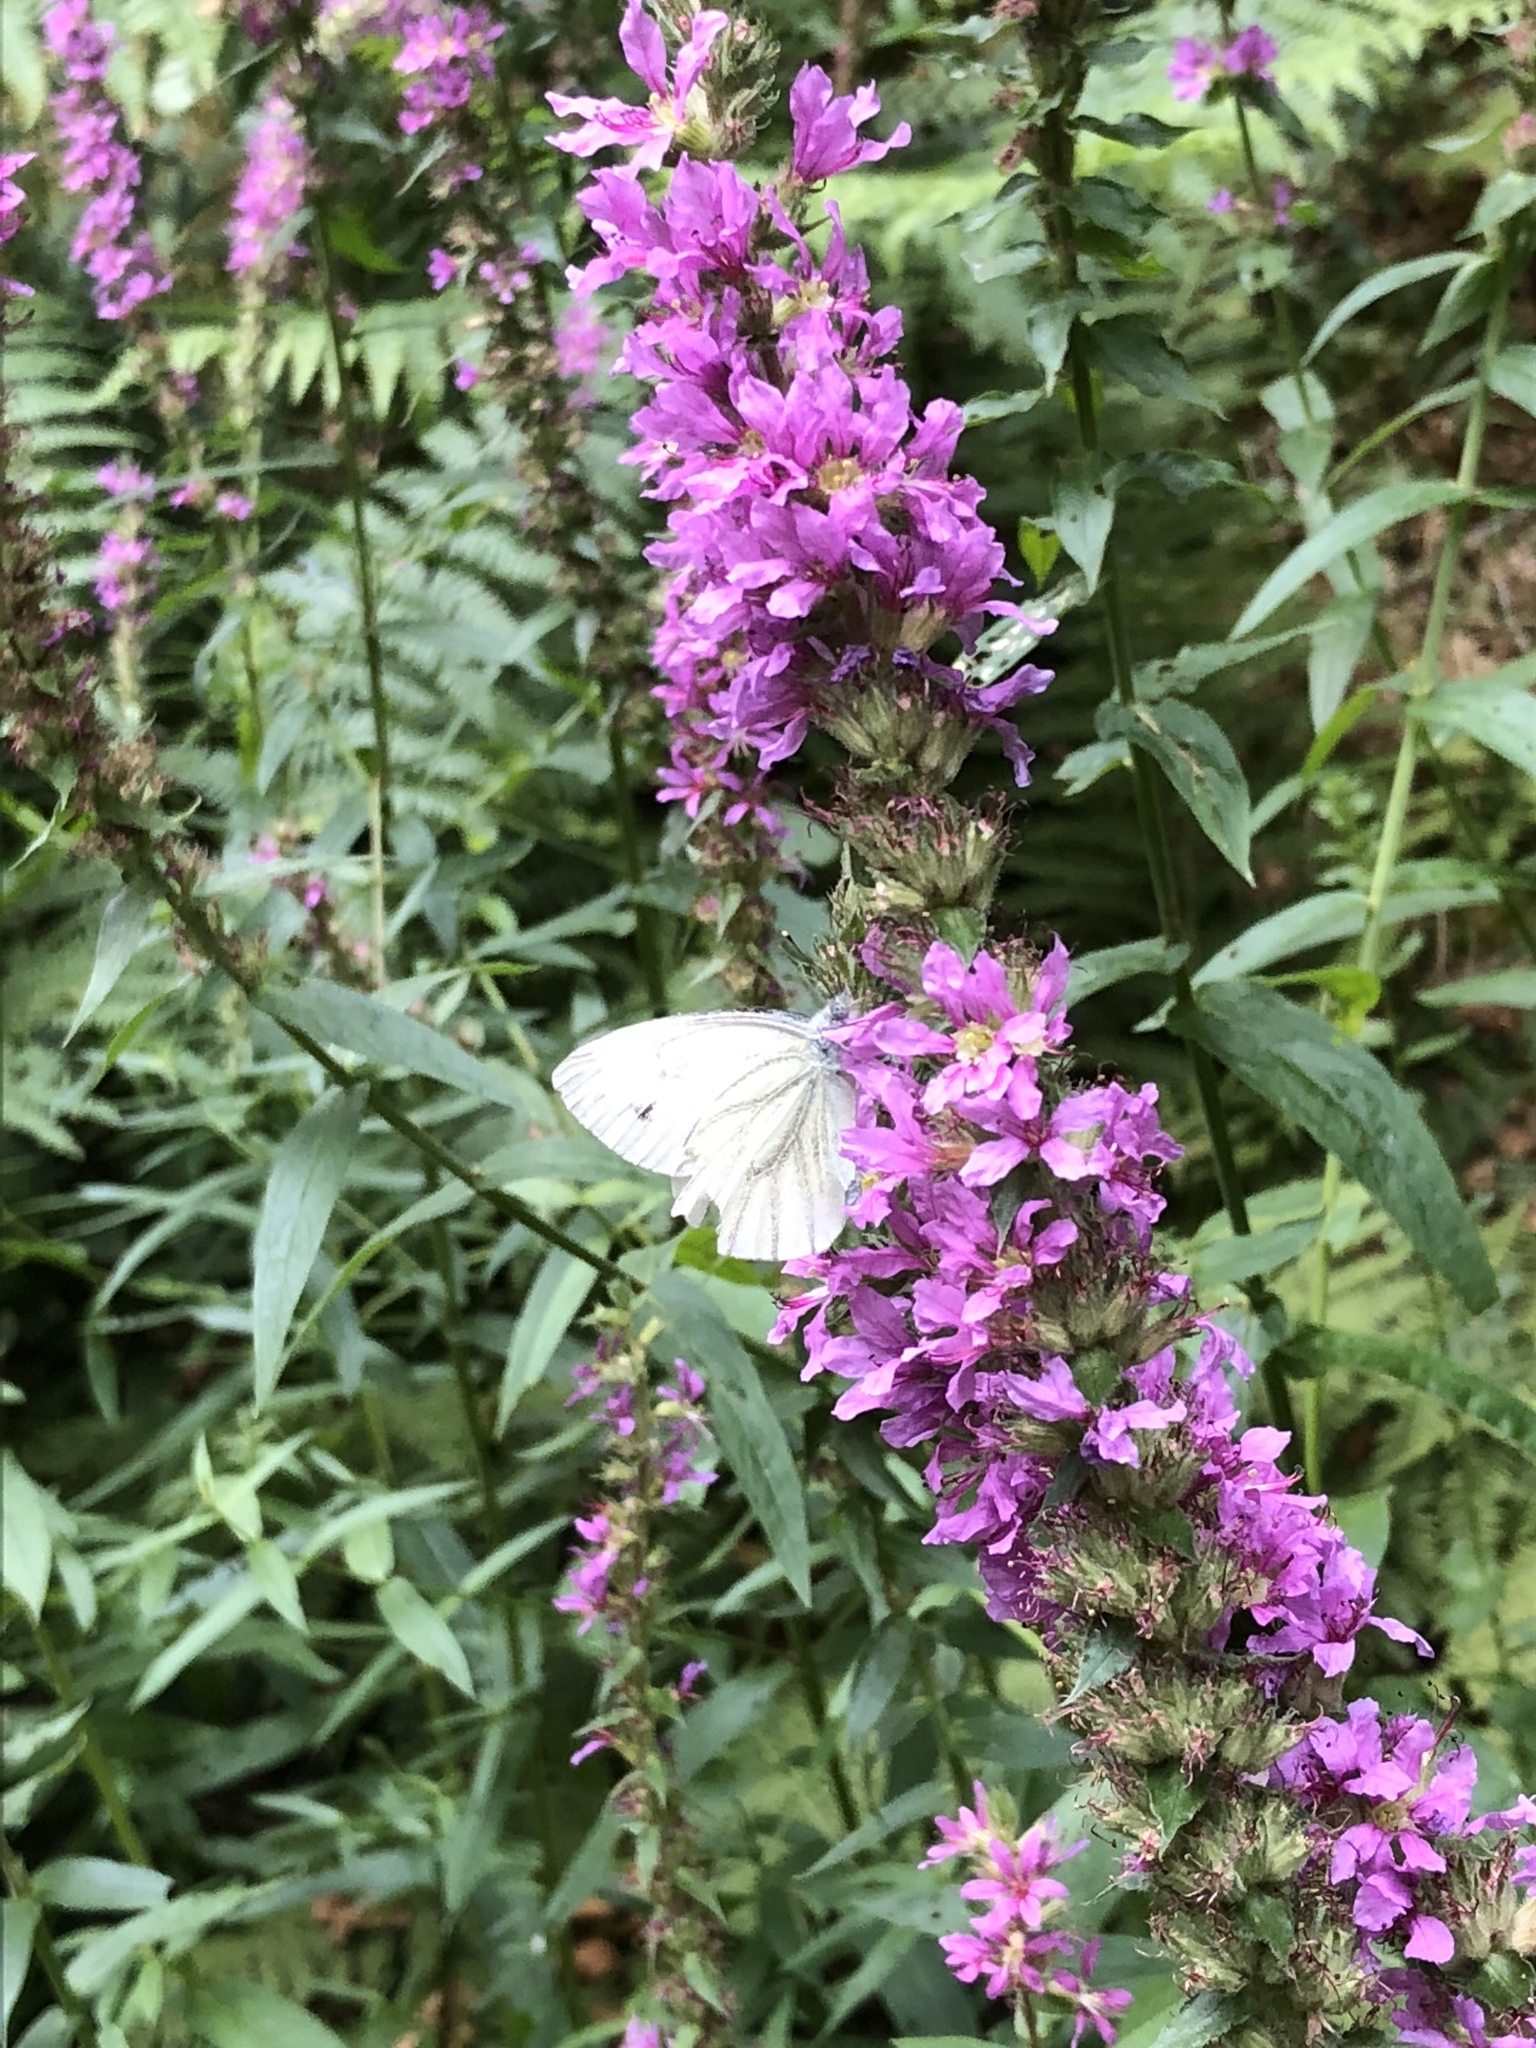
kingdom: Animalia
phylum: Arthropoda
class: Insecta
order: Lepidoptera
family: Pieridae
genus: Pieris
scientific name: Pieris napi
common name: Green-veined white
